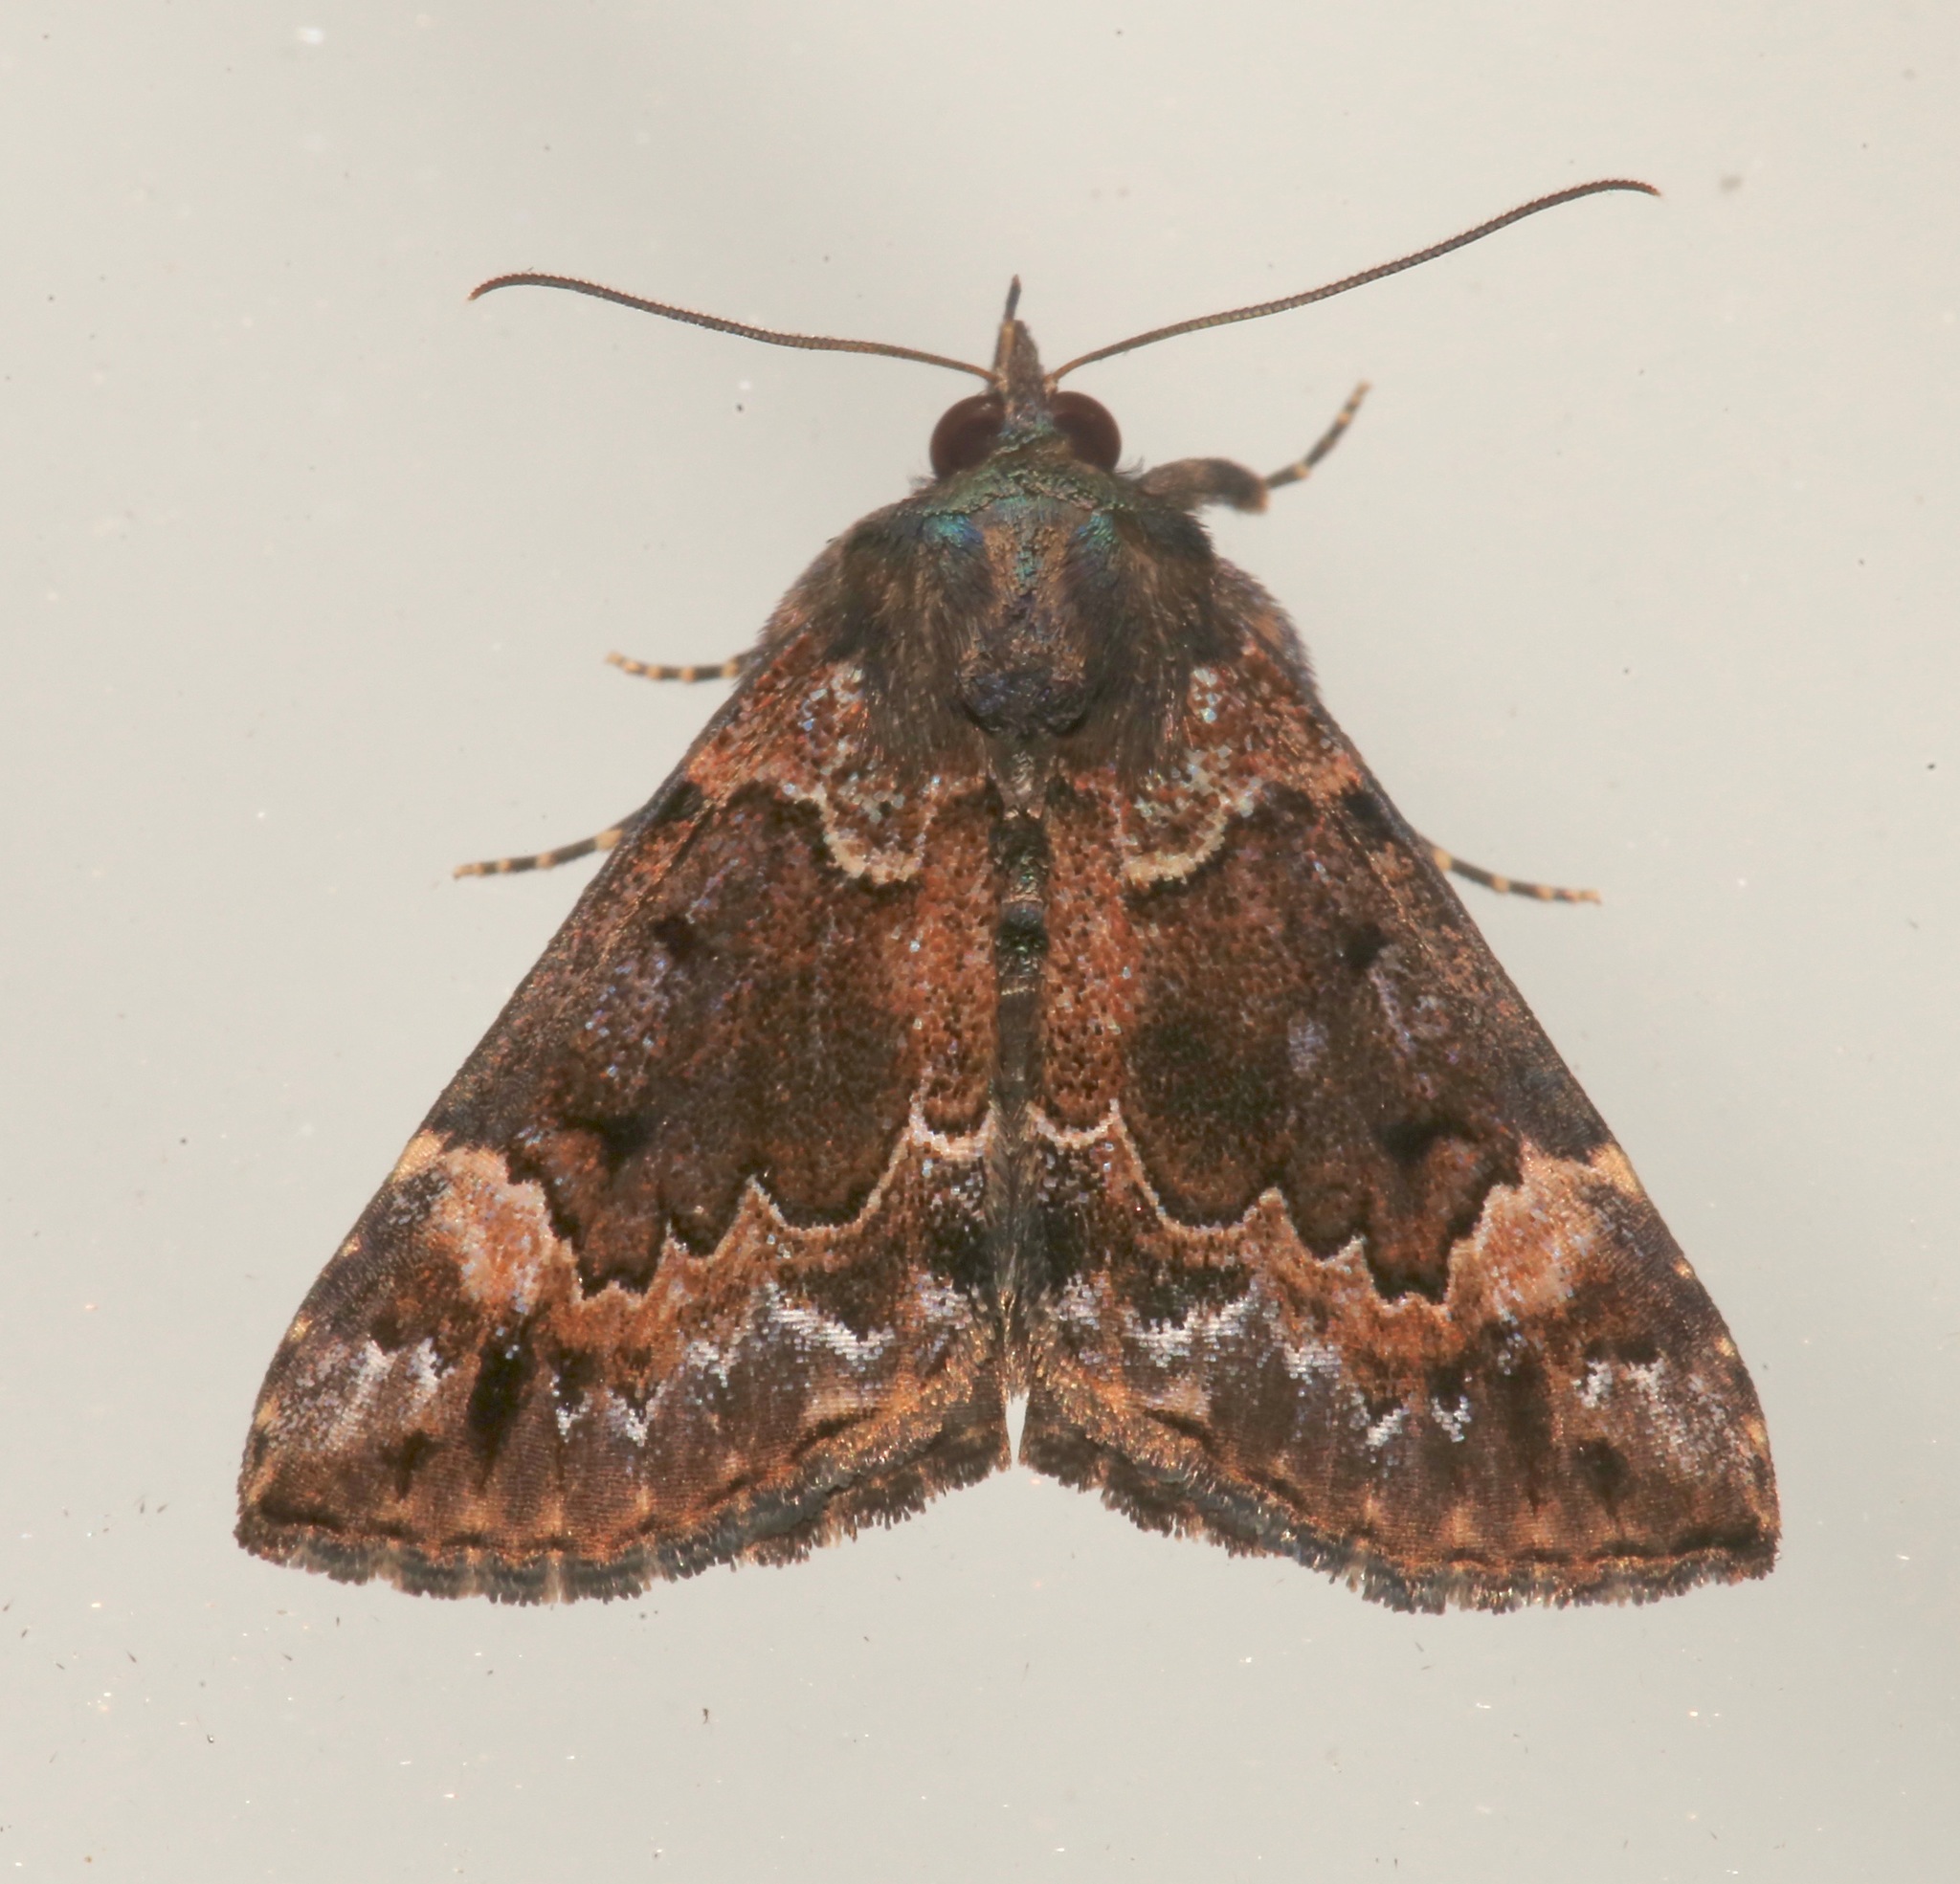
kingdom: Animalia
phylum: Arthropoda
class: Insecta
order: Lepidoptera
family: Erebidae
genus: Hypena
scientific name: Hypena palparia
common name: Mottled bomolocha moth
